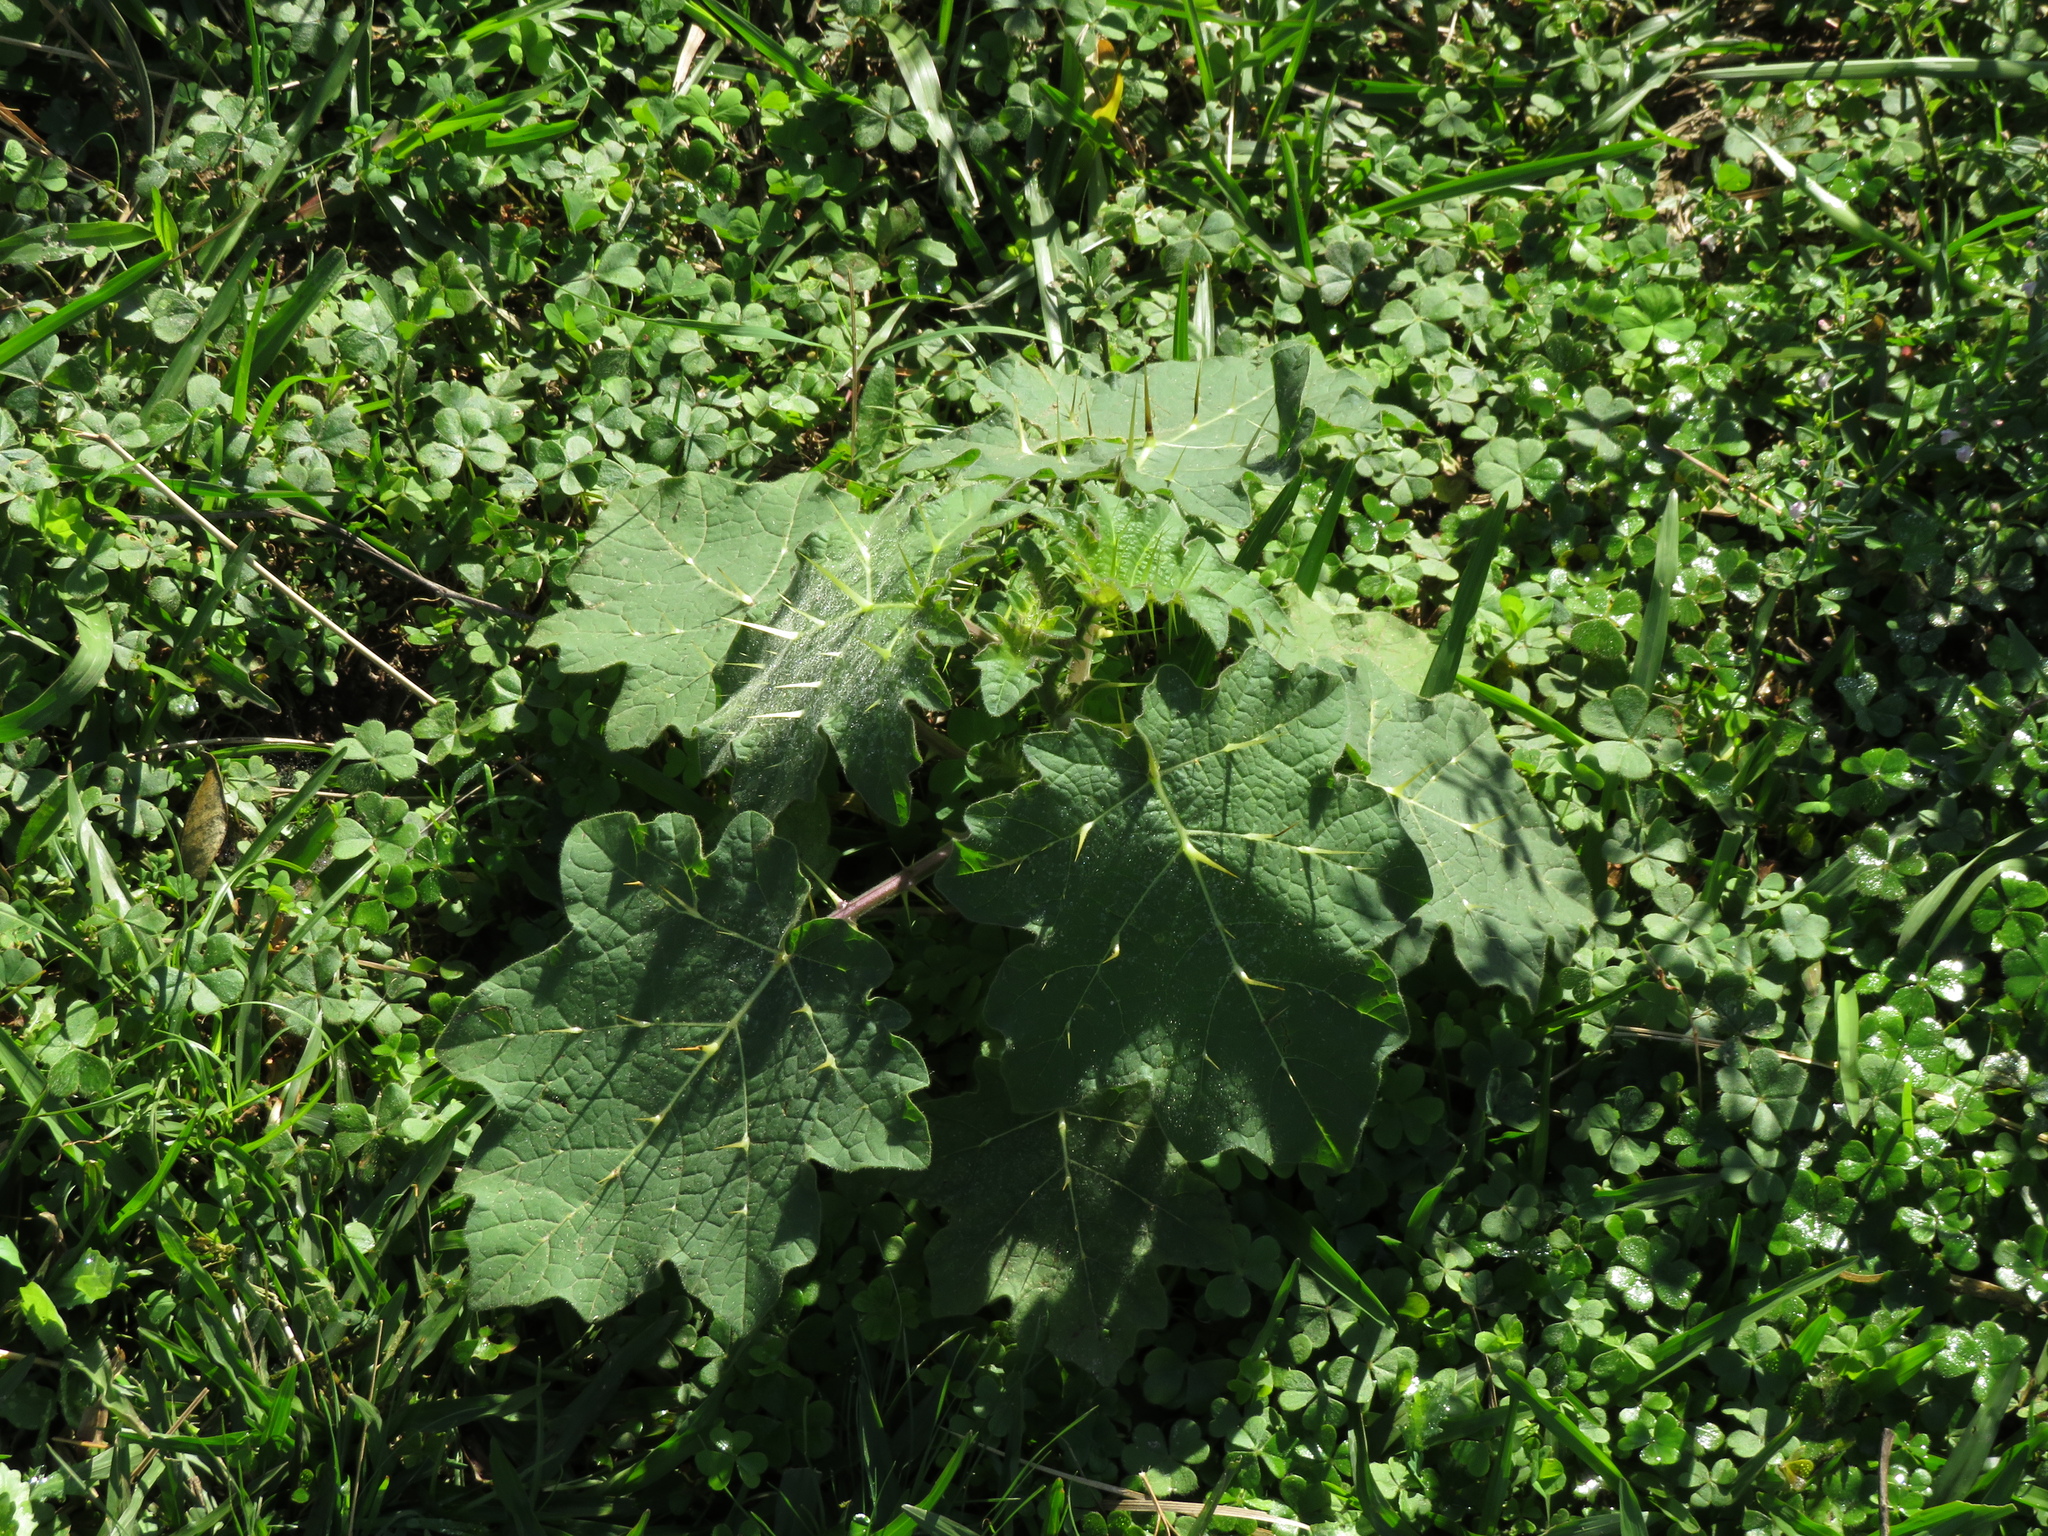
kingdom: Plantae
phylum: Tracheophyta
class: Magnoliopsida
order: Solanales
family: Solanaceae
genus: Solanum
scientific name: Solanum viarum
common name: Tropical soda apple
